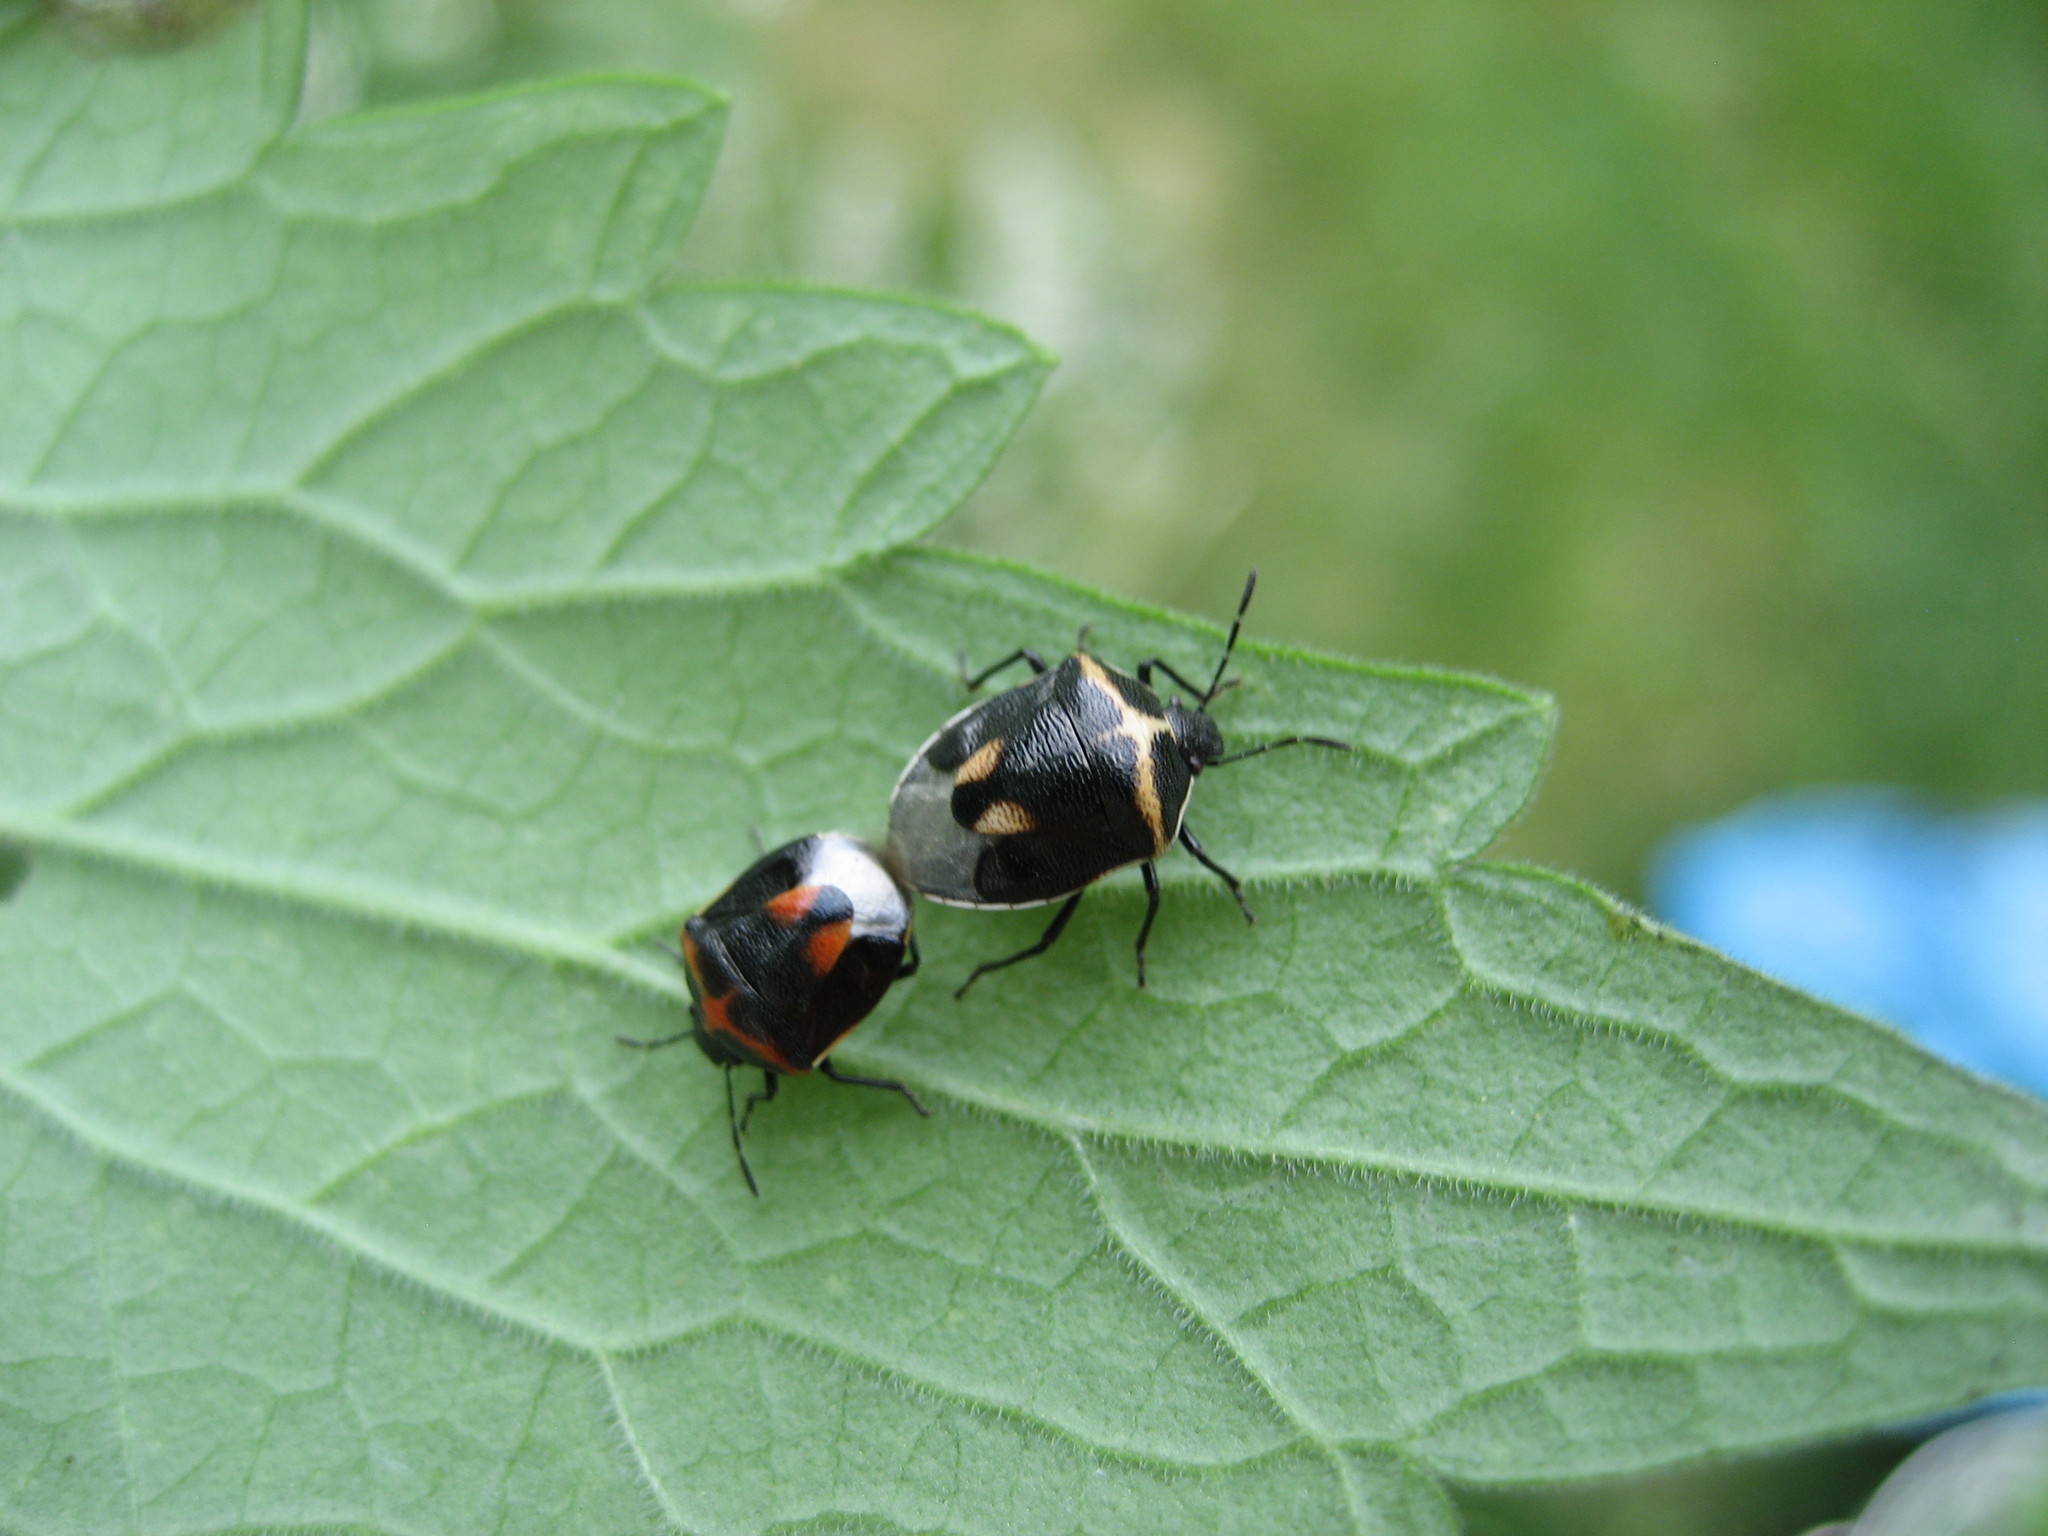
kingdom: Animalia
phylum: Arthropoda
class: Insecta
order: Hemiptera
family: Pentatomidae
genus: Cosmopepla
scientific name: Cosmopepla lintneriana
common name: Twice-stabbed stink bug
